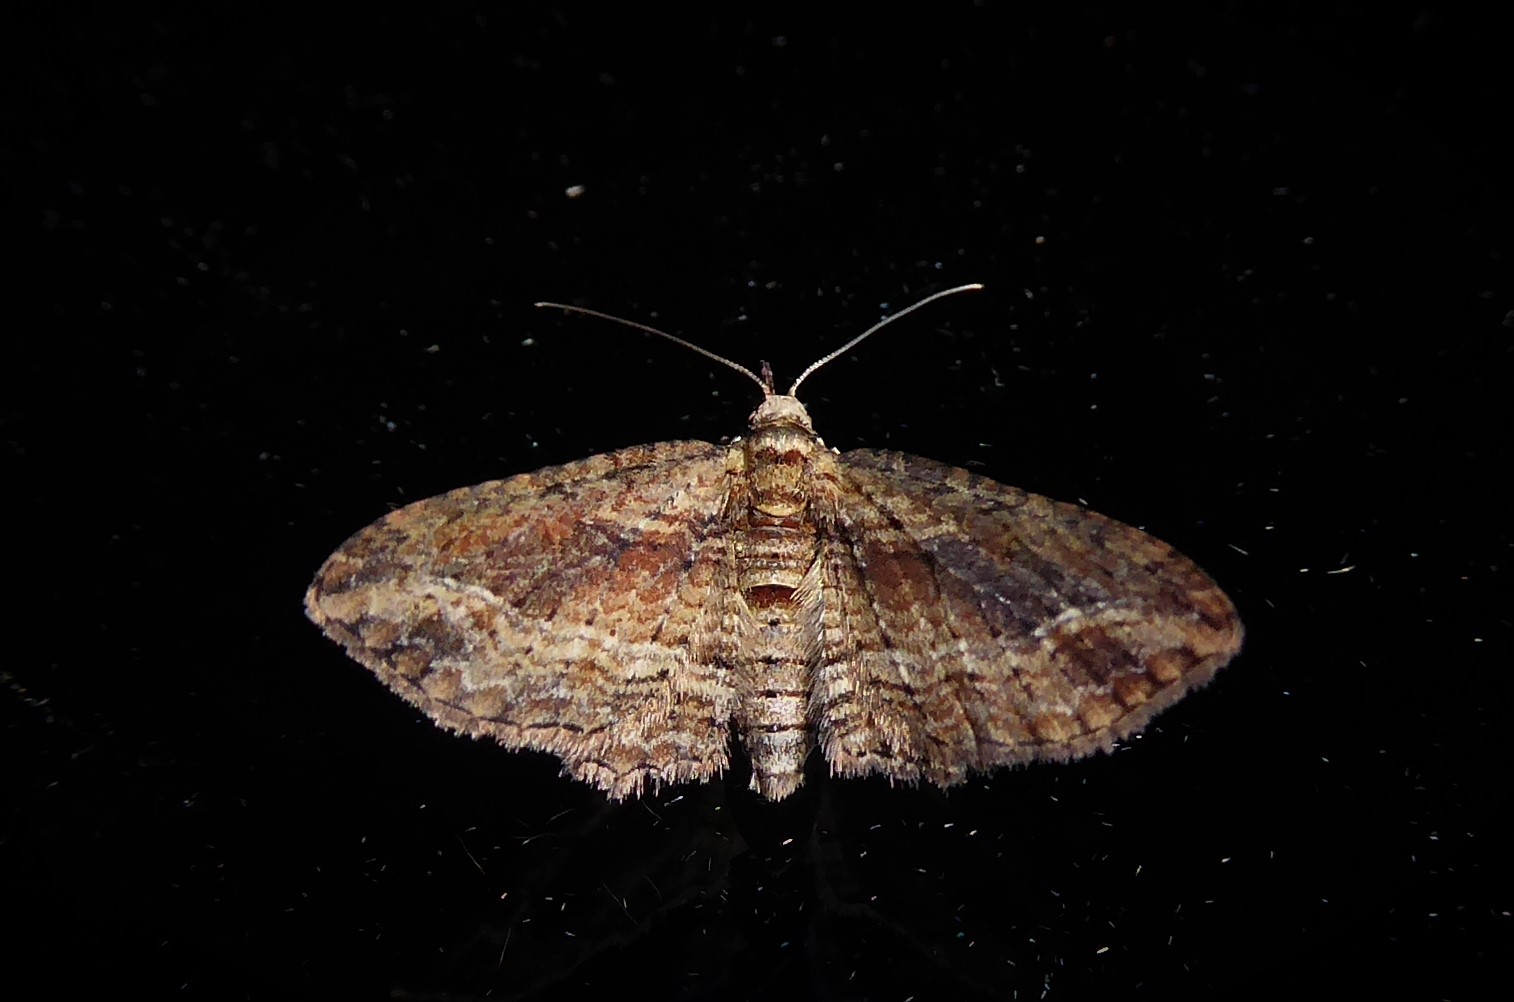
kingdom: Animalia
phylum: Arthropoda
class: Insecta
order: Lepidoptera
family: Geometridae
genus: Chloroclystis
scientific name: Chloroclystis filata
